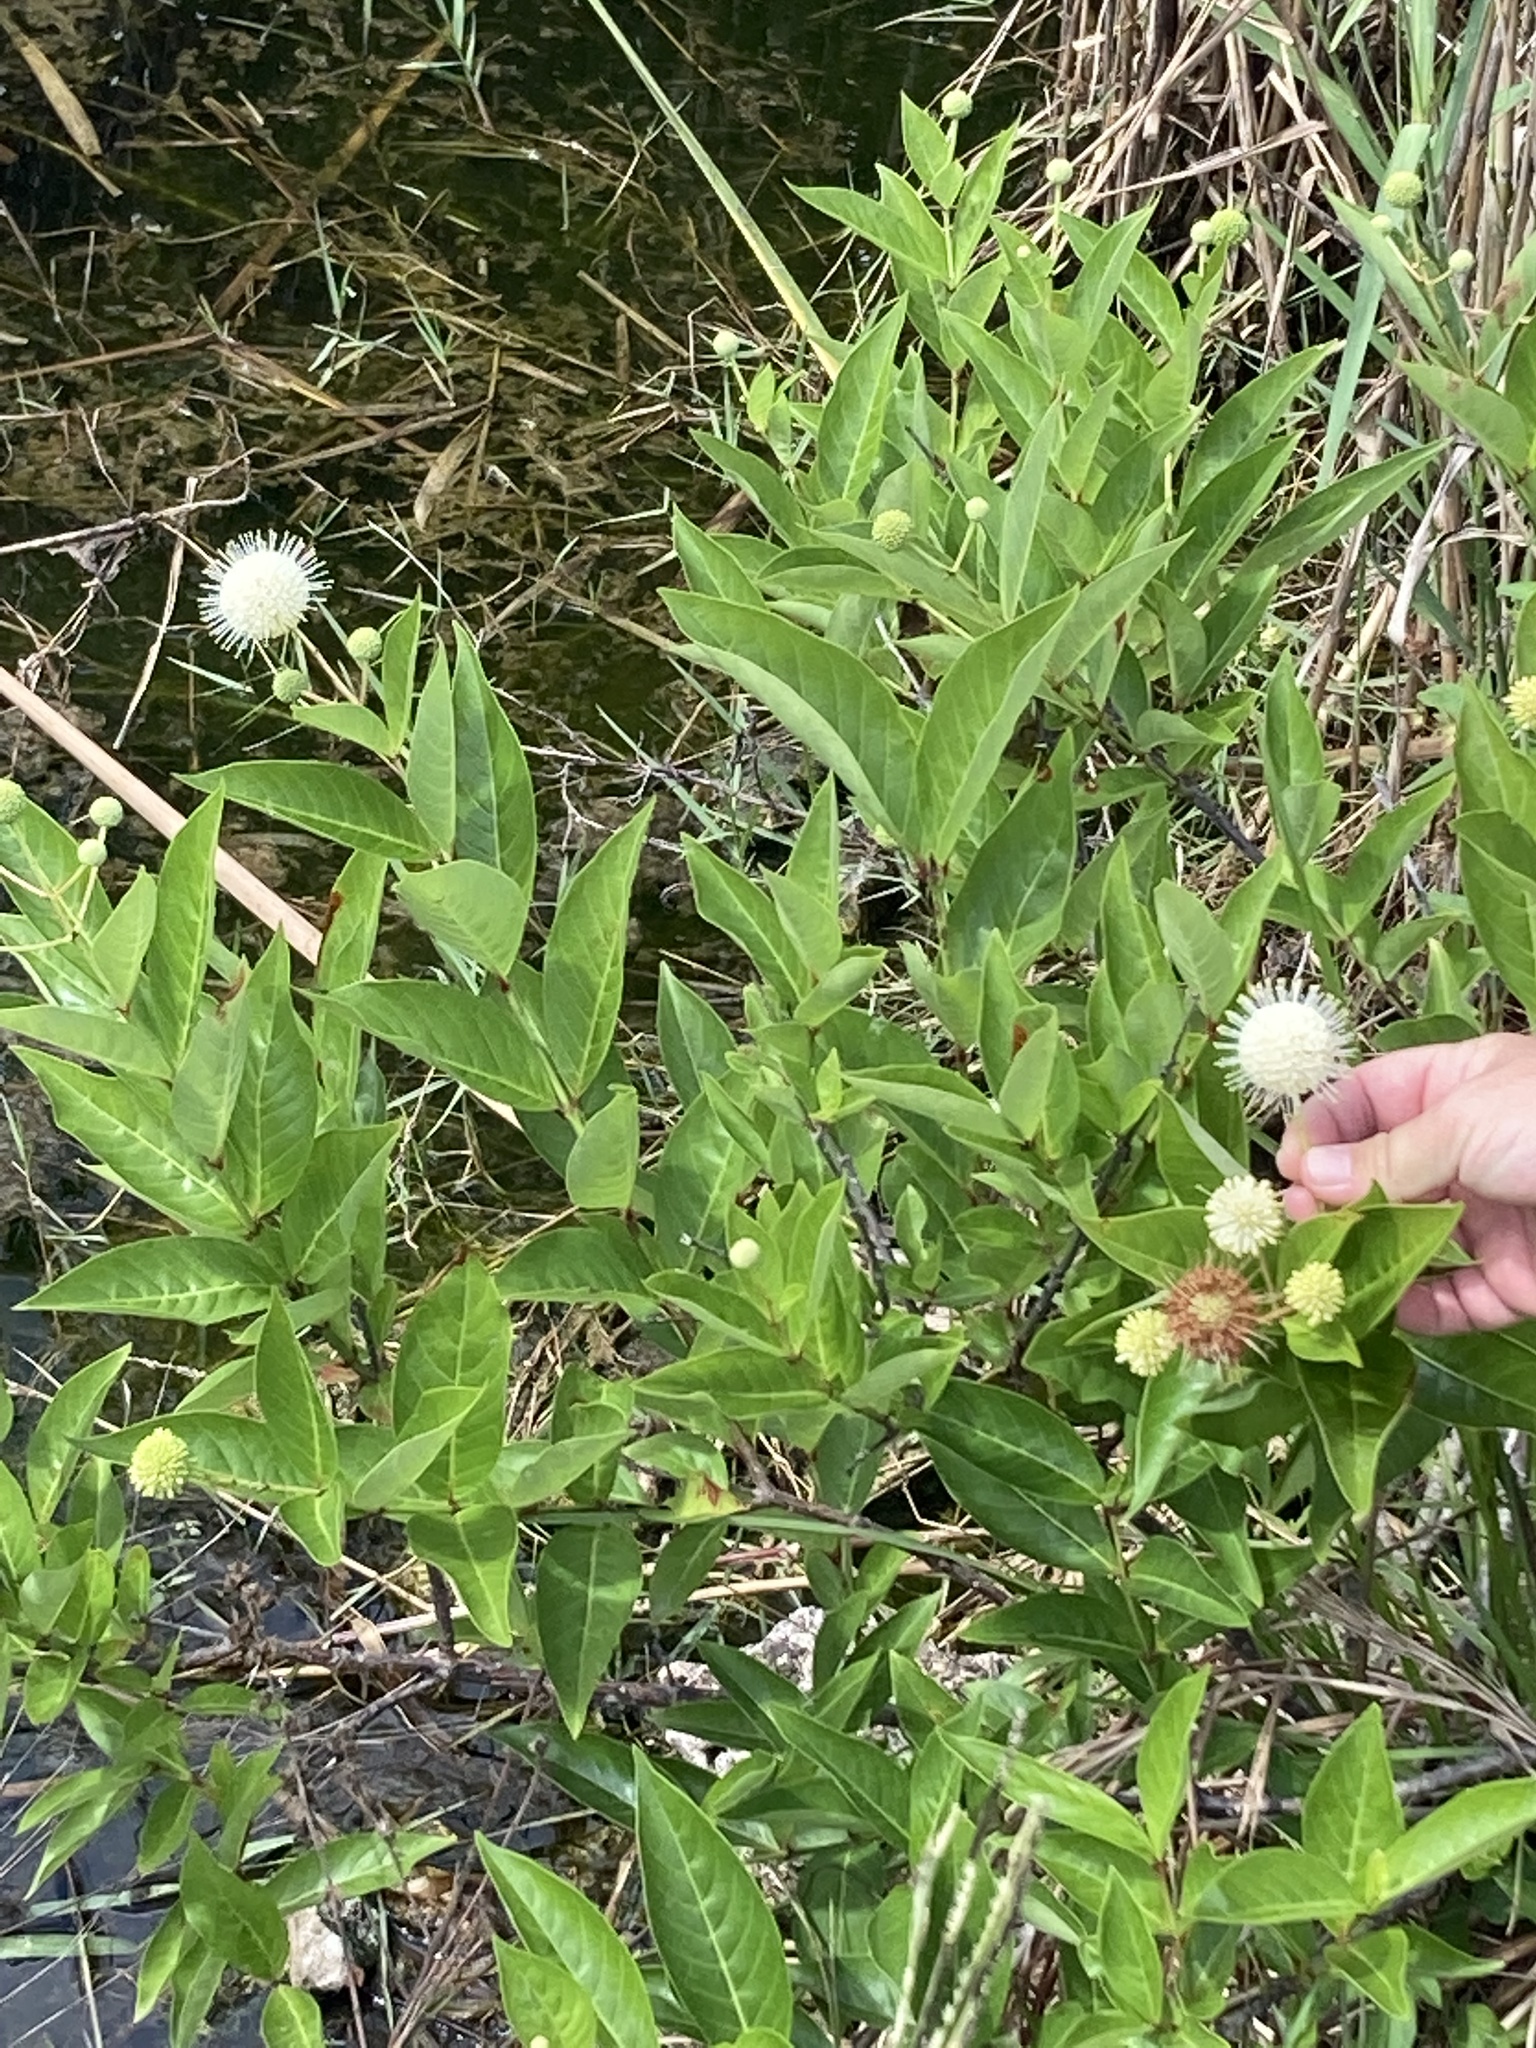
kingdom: Plantae
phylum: Tracheophyta
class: Magnoliopsida
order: Gentianales
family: Rubiaceae
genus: Cephalanthus
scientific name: Cephalanthus occidentalis
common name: Button-willow
